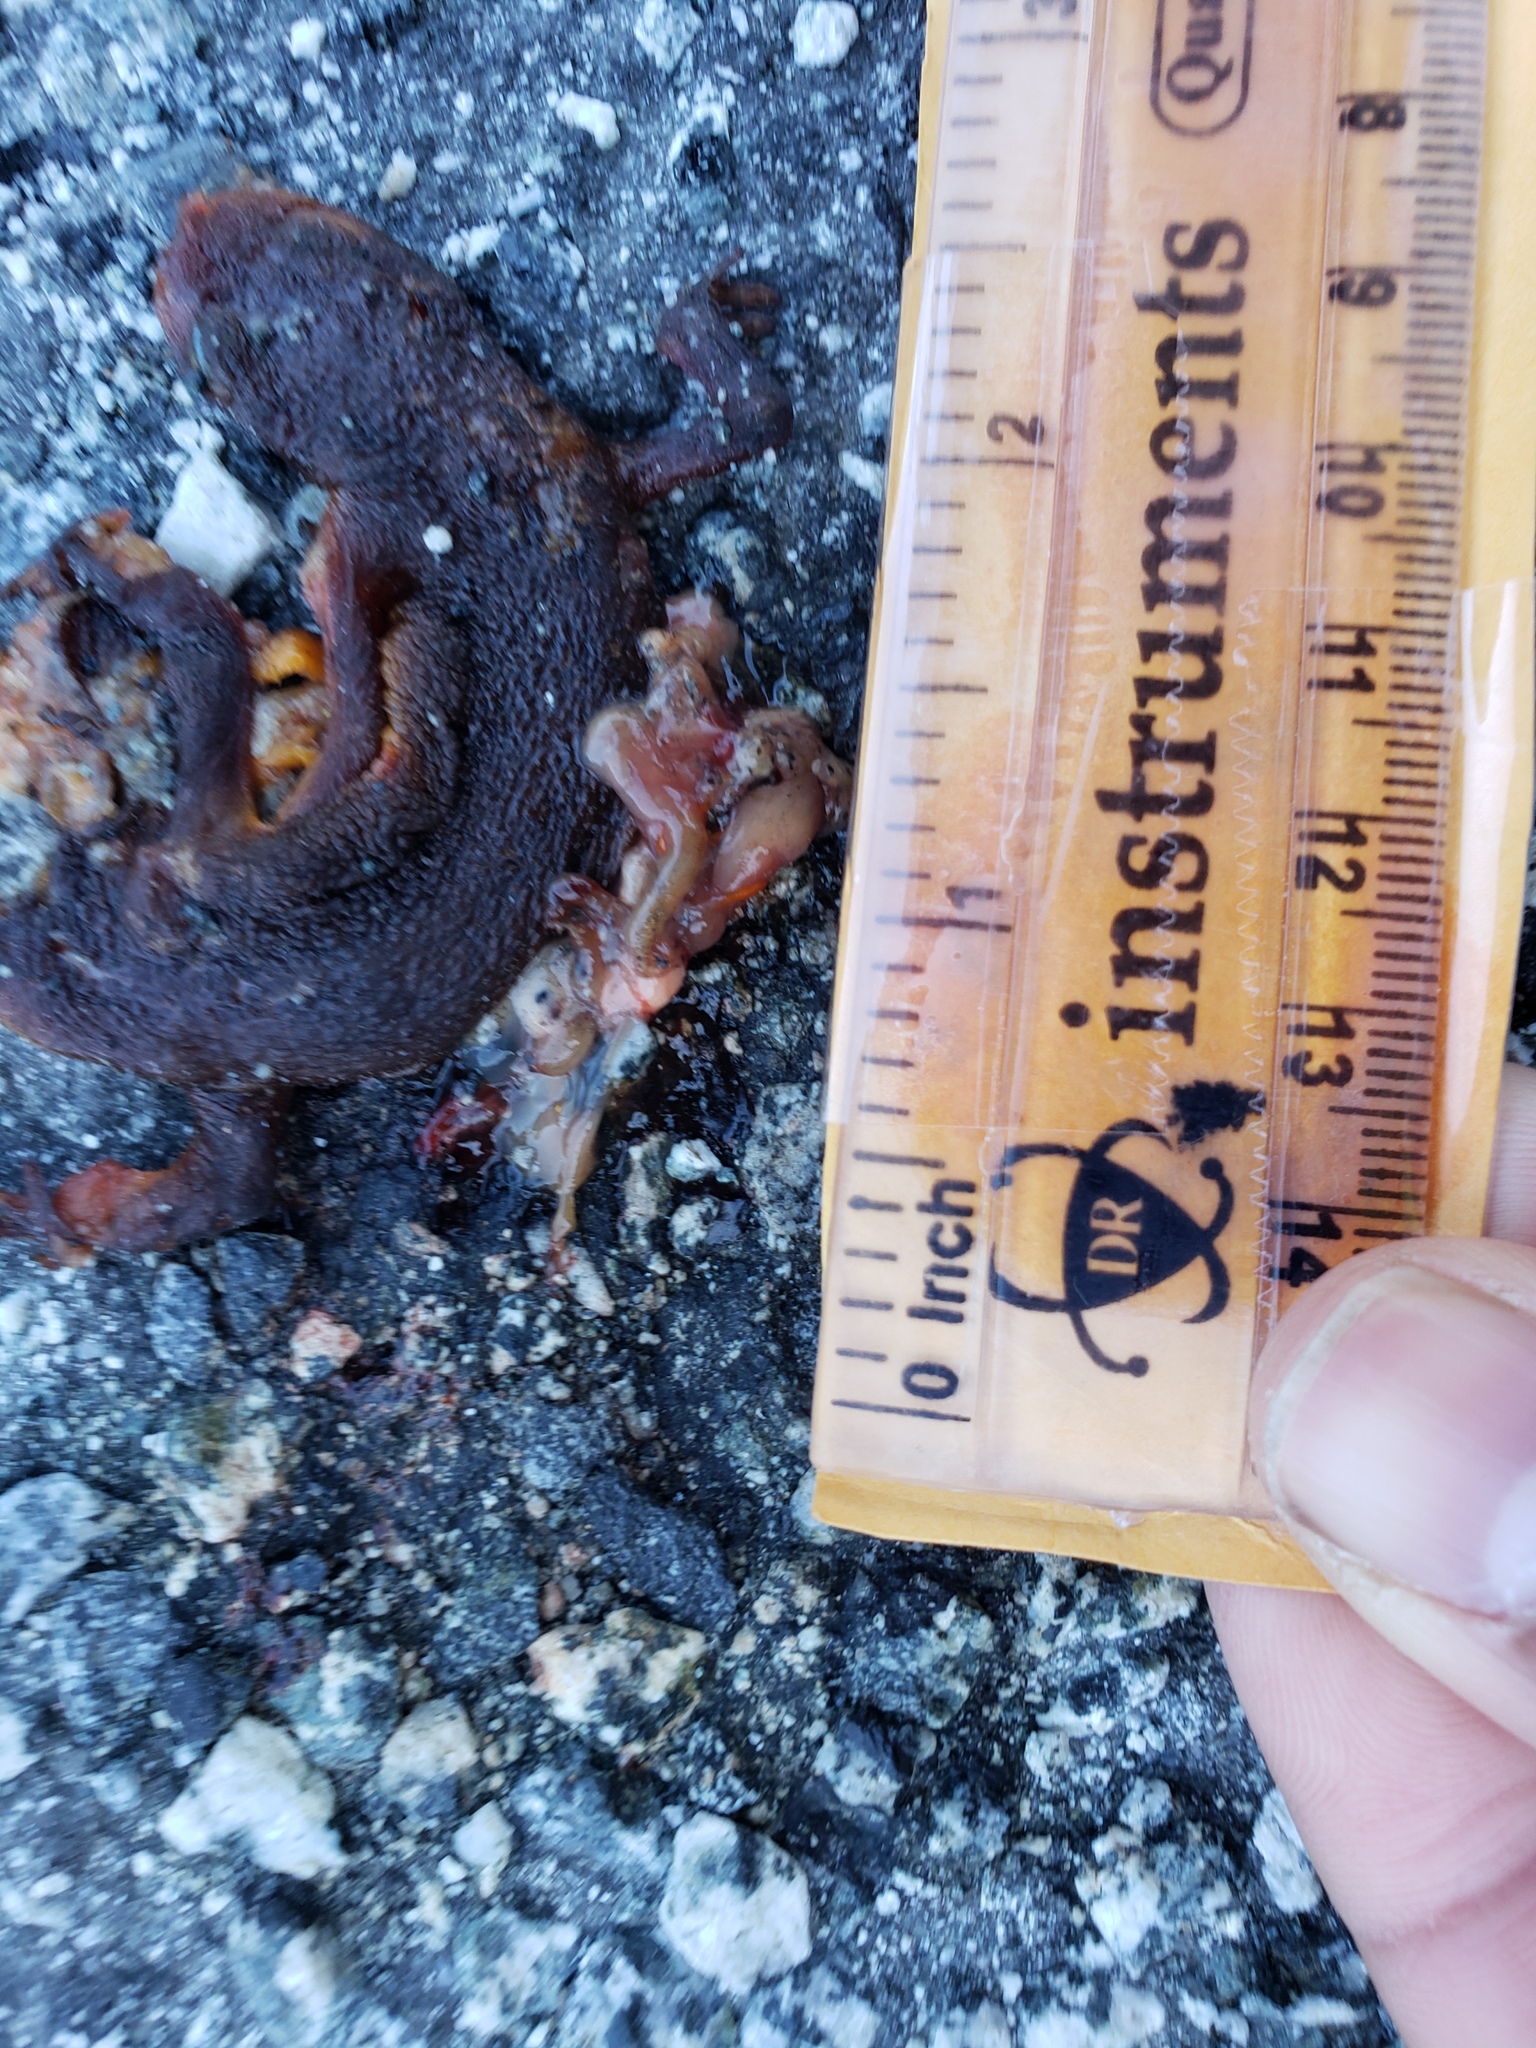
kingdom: Animalia
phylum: Chordata
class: Amphibia
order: Caudata
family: Salamandridae
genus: Taricha
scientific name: Taricha
